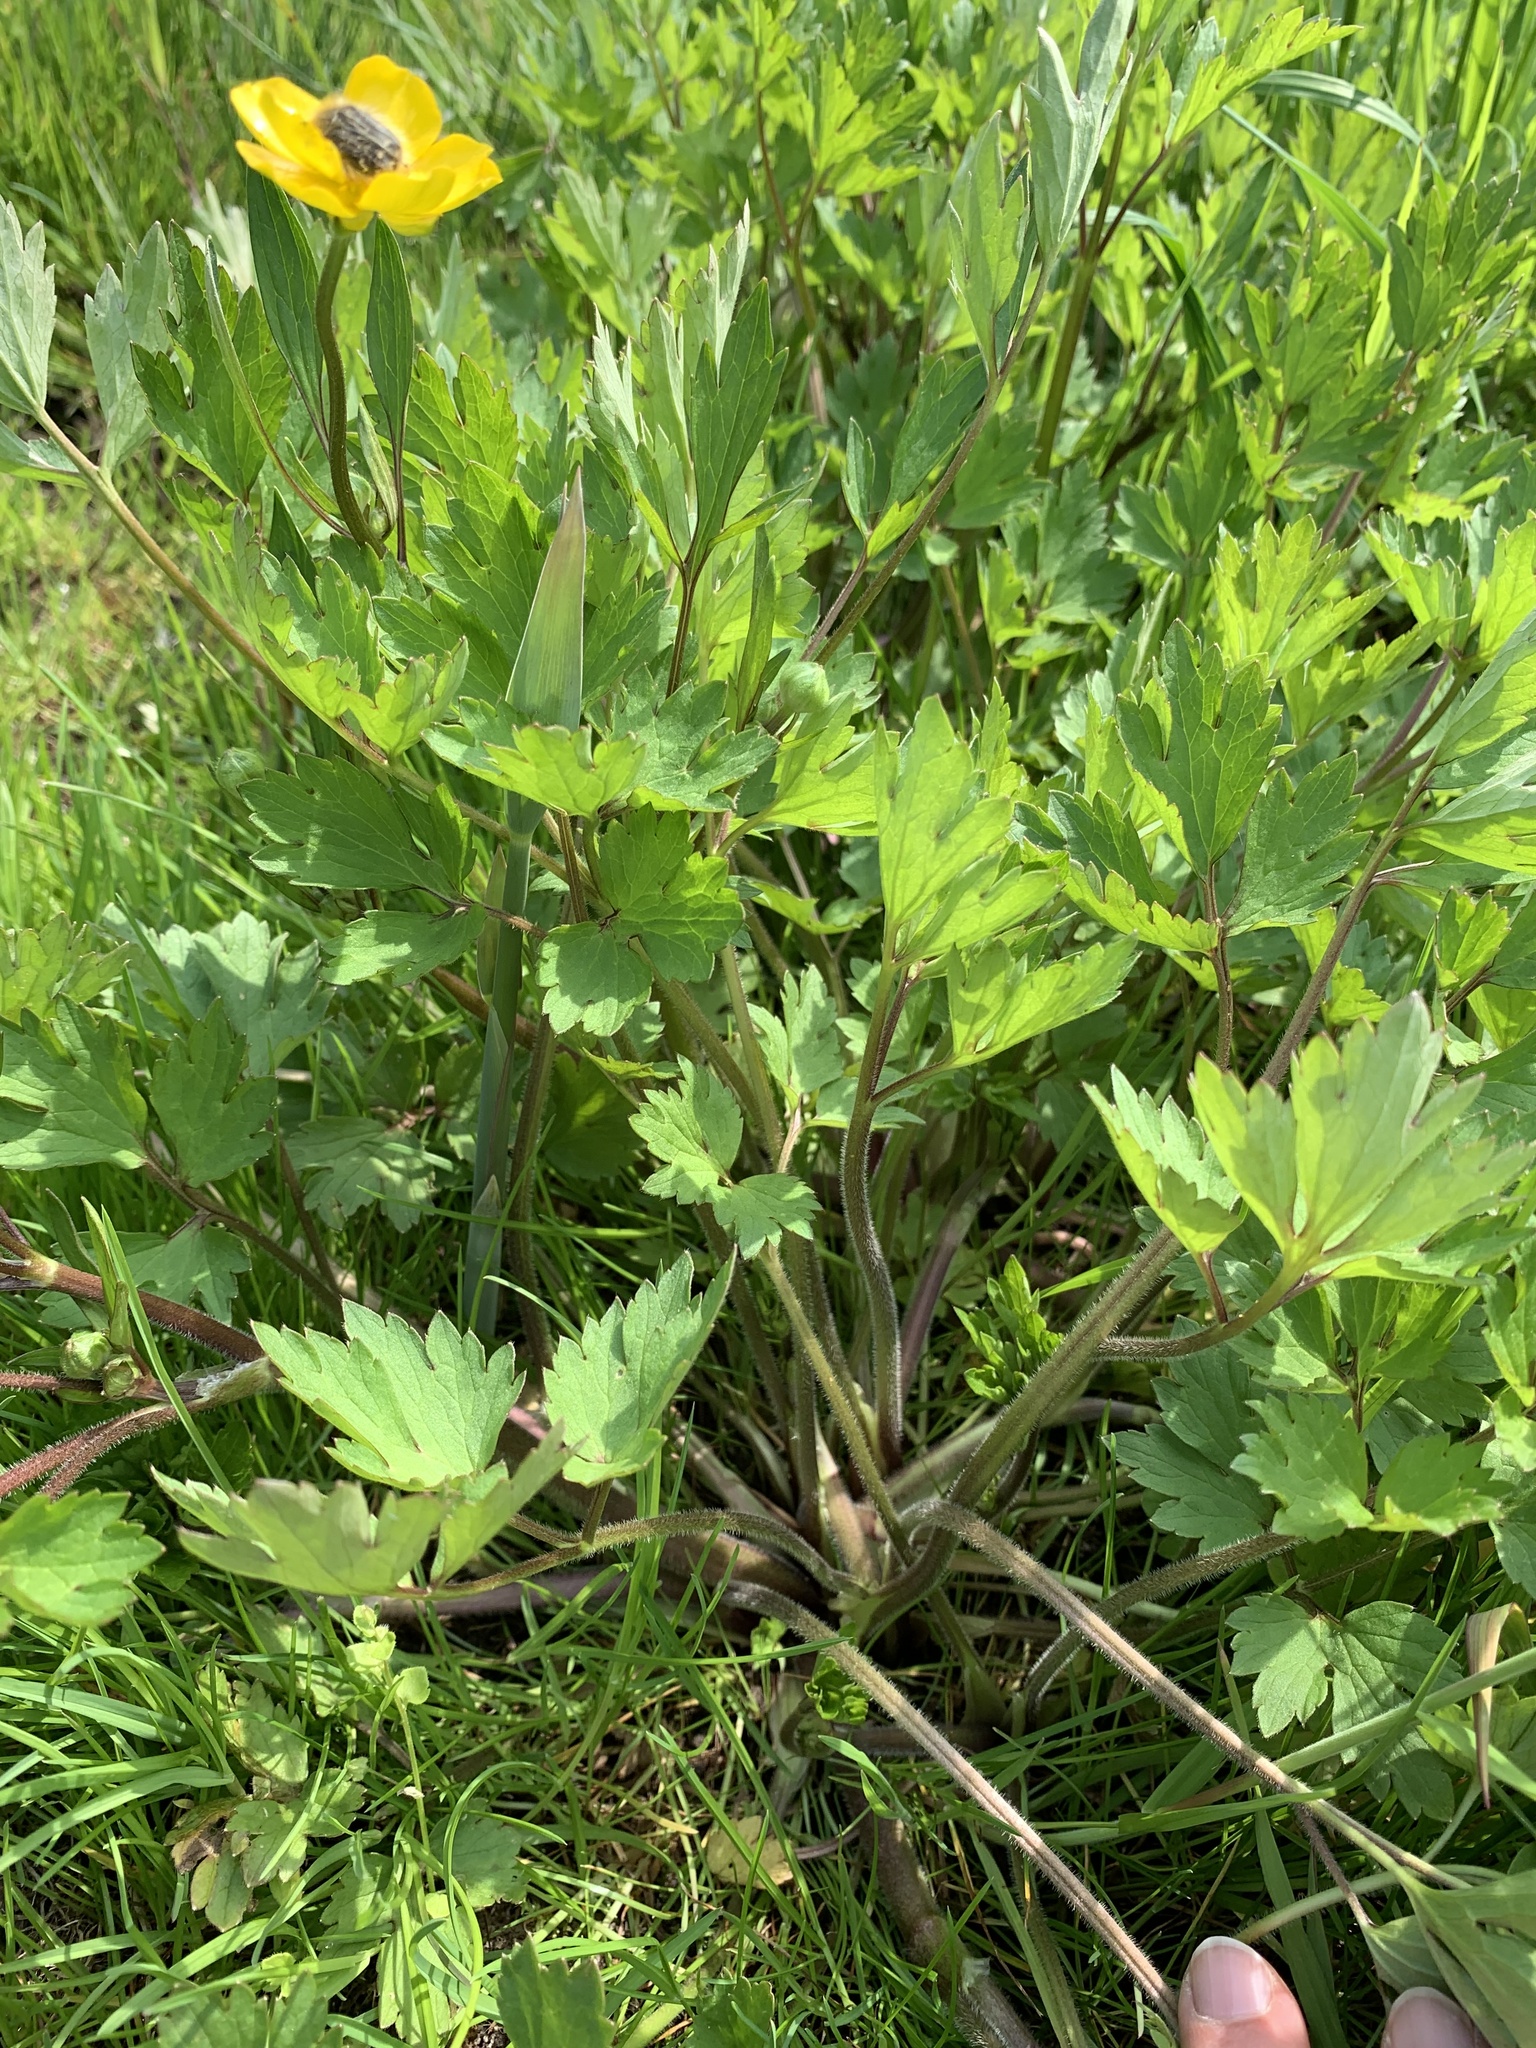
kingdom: Plantae
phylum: Tracheophyta
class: Magnoliopsida
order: Ranunculales
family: Ranunculaceae
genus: Ranunculus
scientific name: Ranunculus repens
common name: Creeping buttercup
